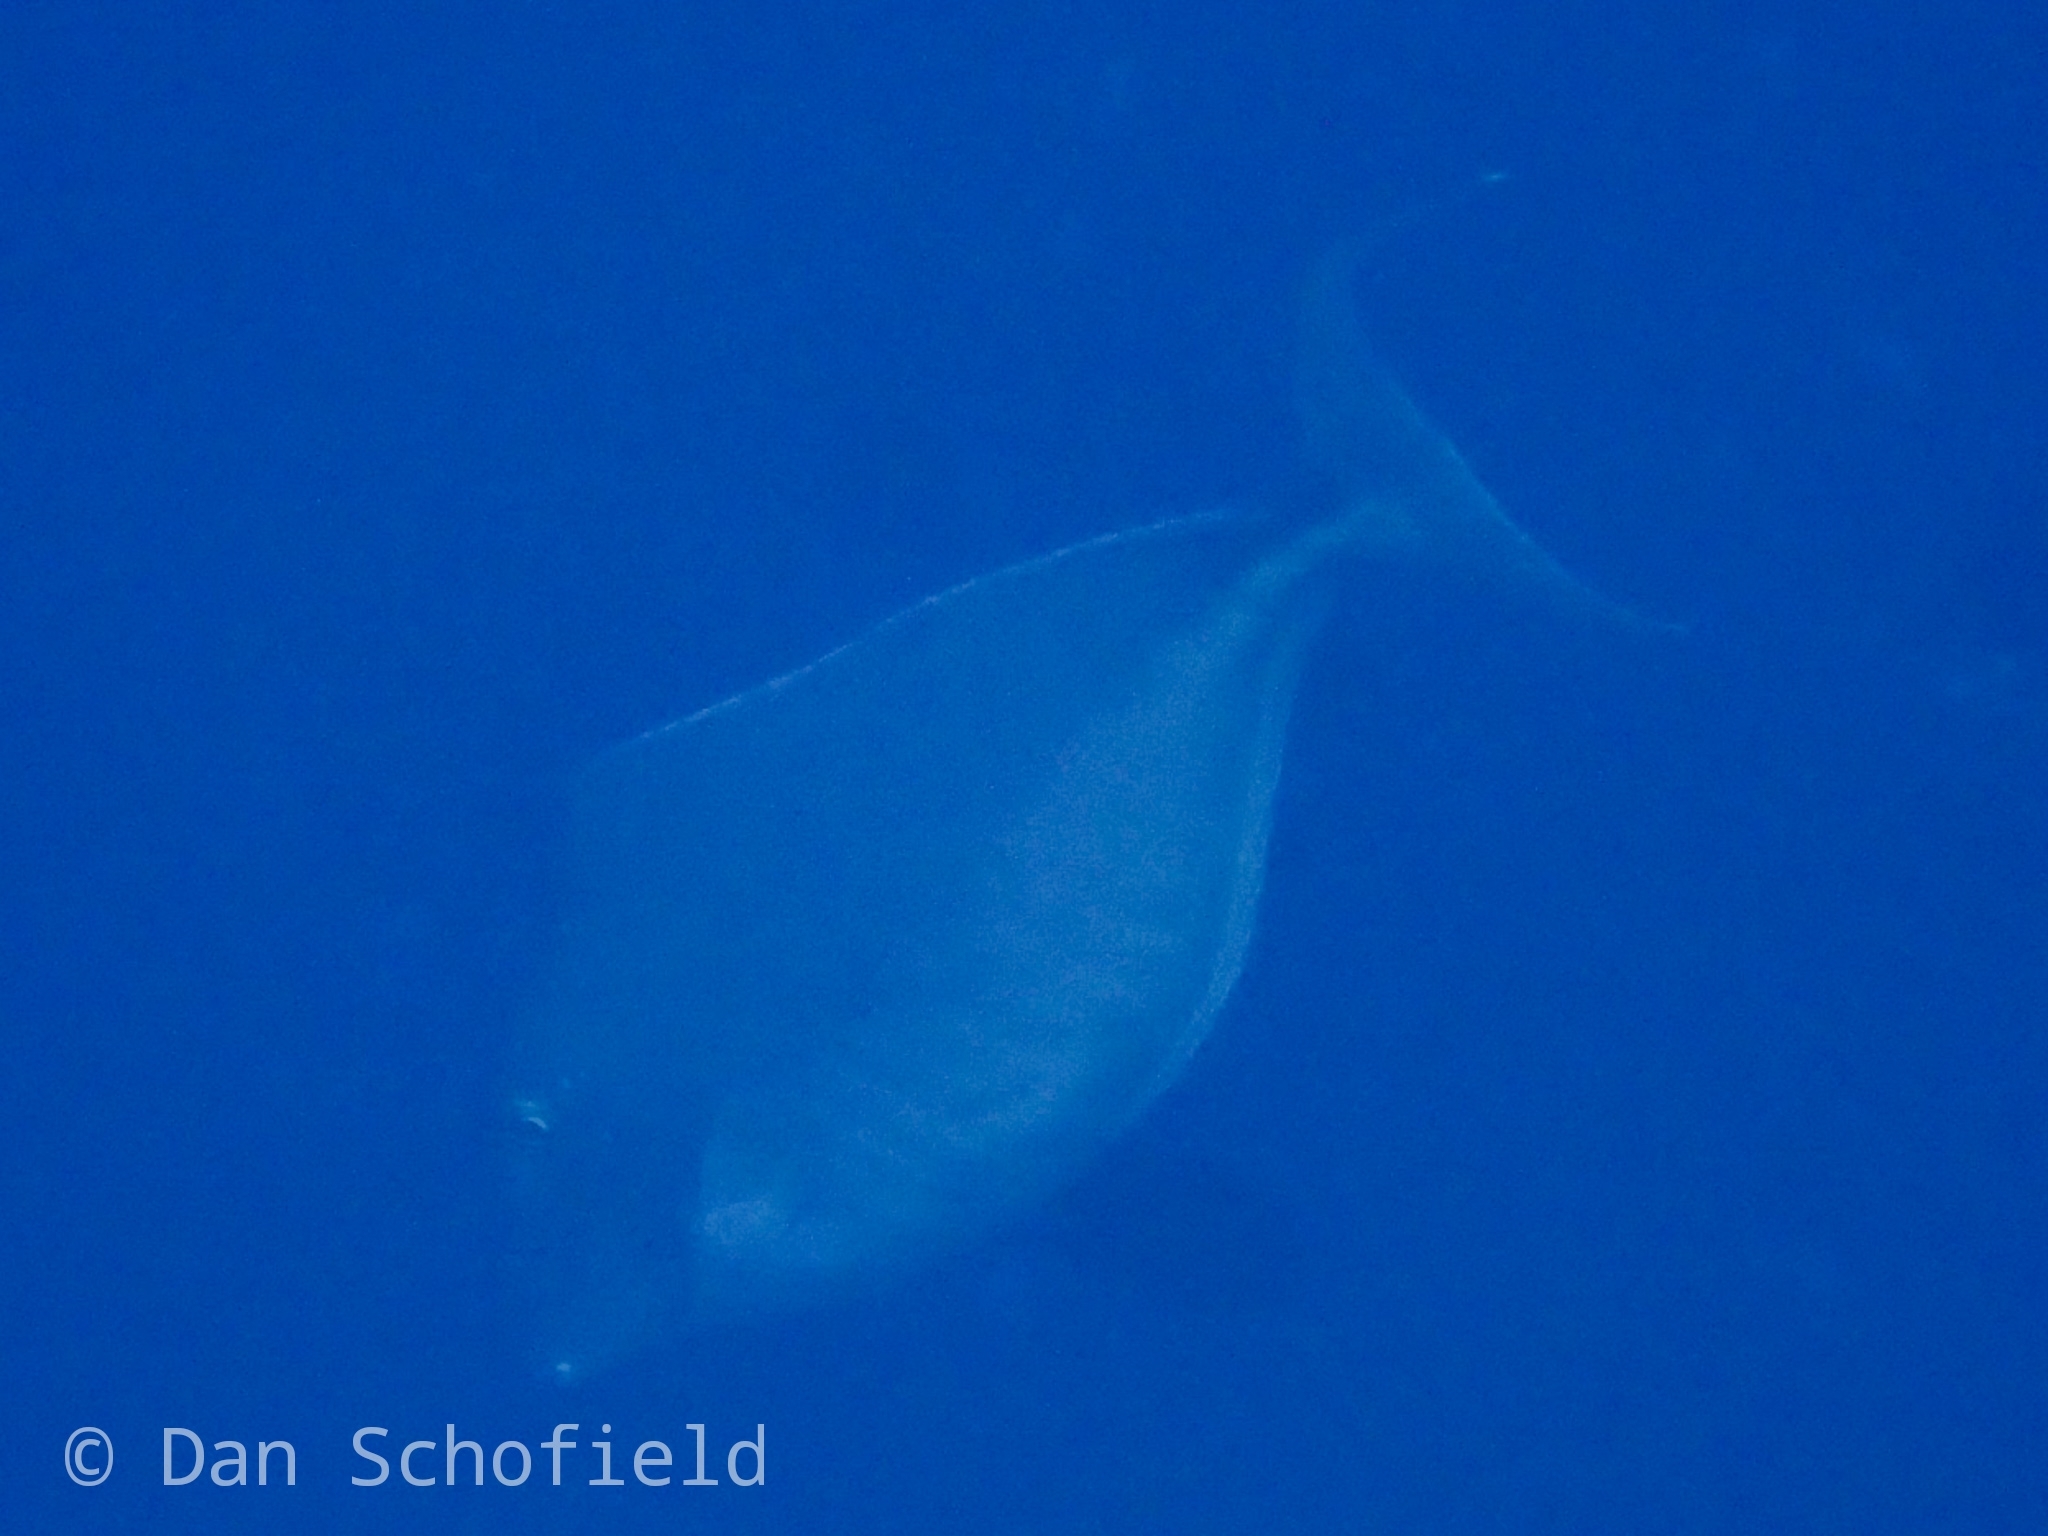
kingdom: Animalia
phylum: Chordata
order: Perciformes
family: Acanthuridae
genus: Naso
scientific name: Naso brachycentron
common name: Humpback unicornfish
